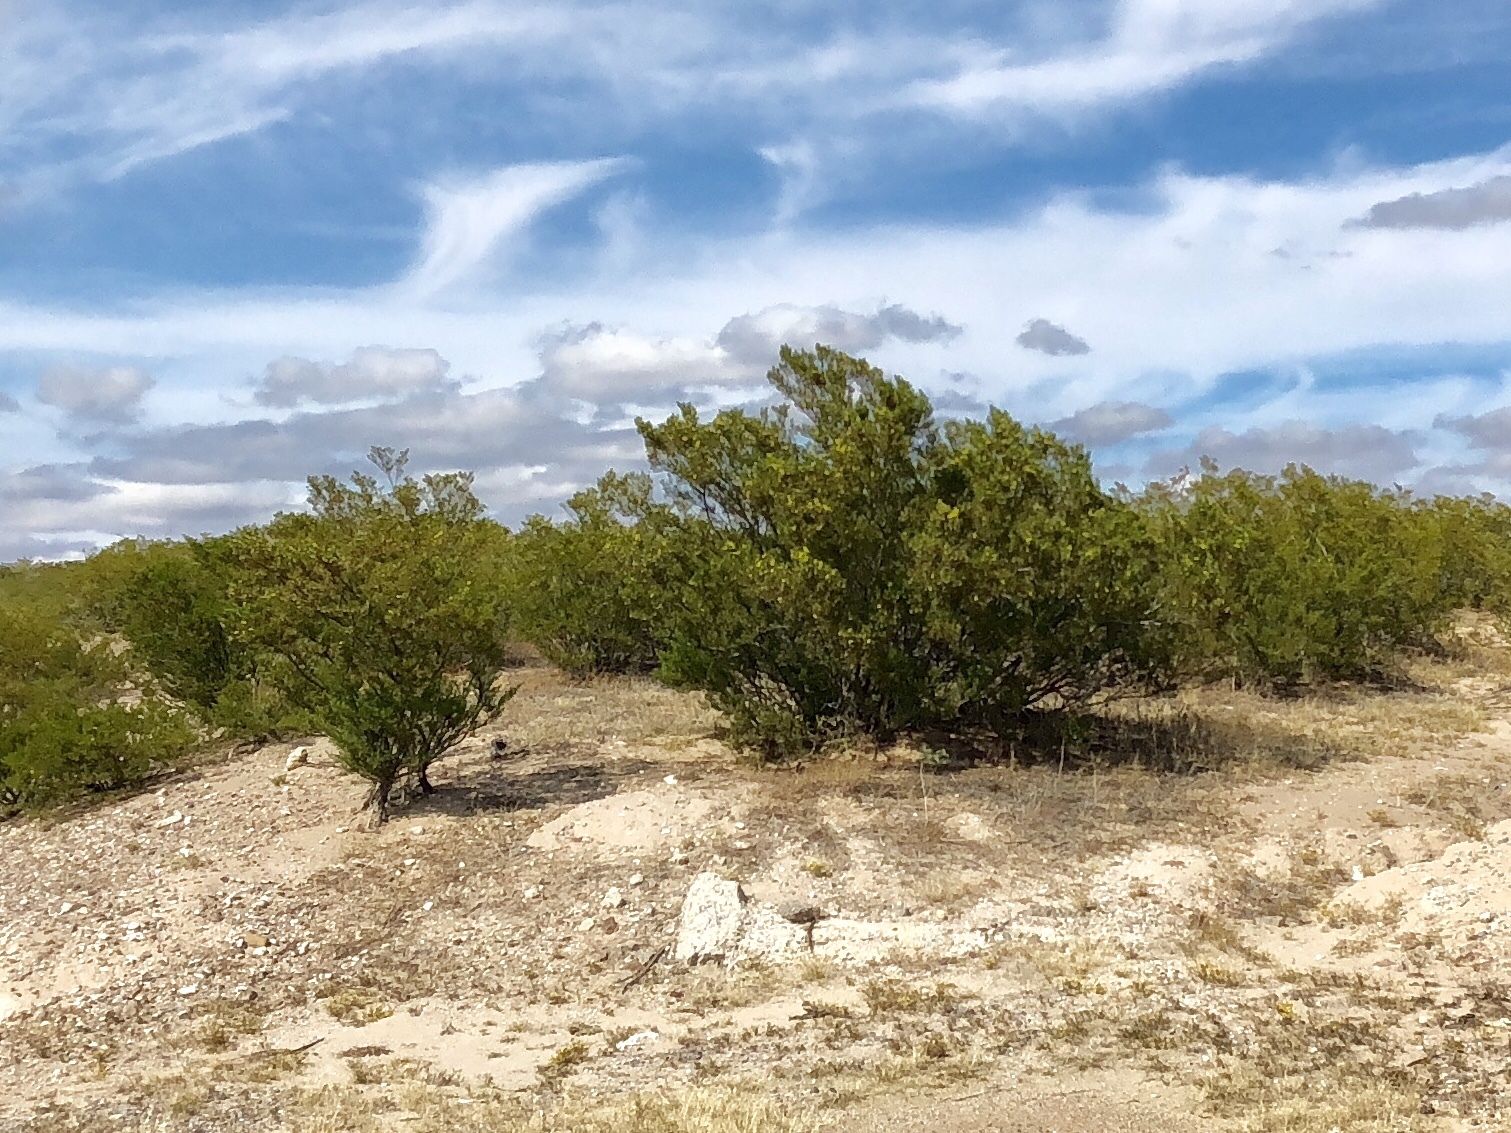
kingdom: Plantae
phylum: Tracheophyta
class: Magnoliopsida
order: Zygophyllales
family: Zygophyllaceae
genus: Larrea
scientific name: Larrea tridentata
